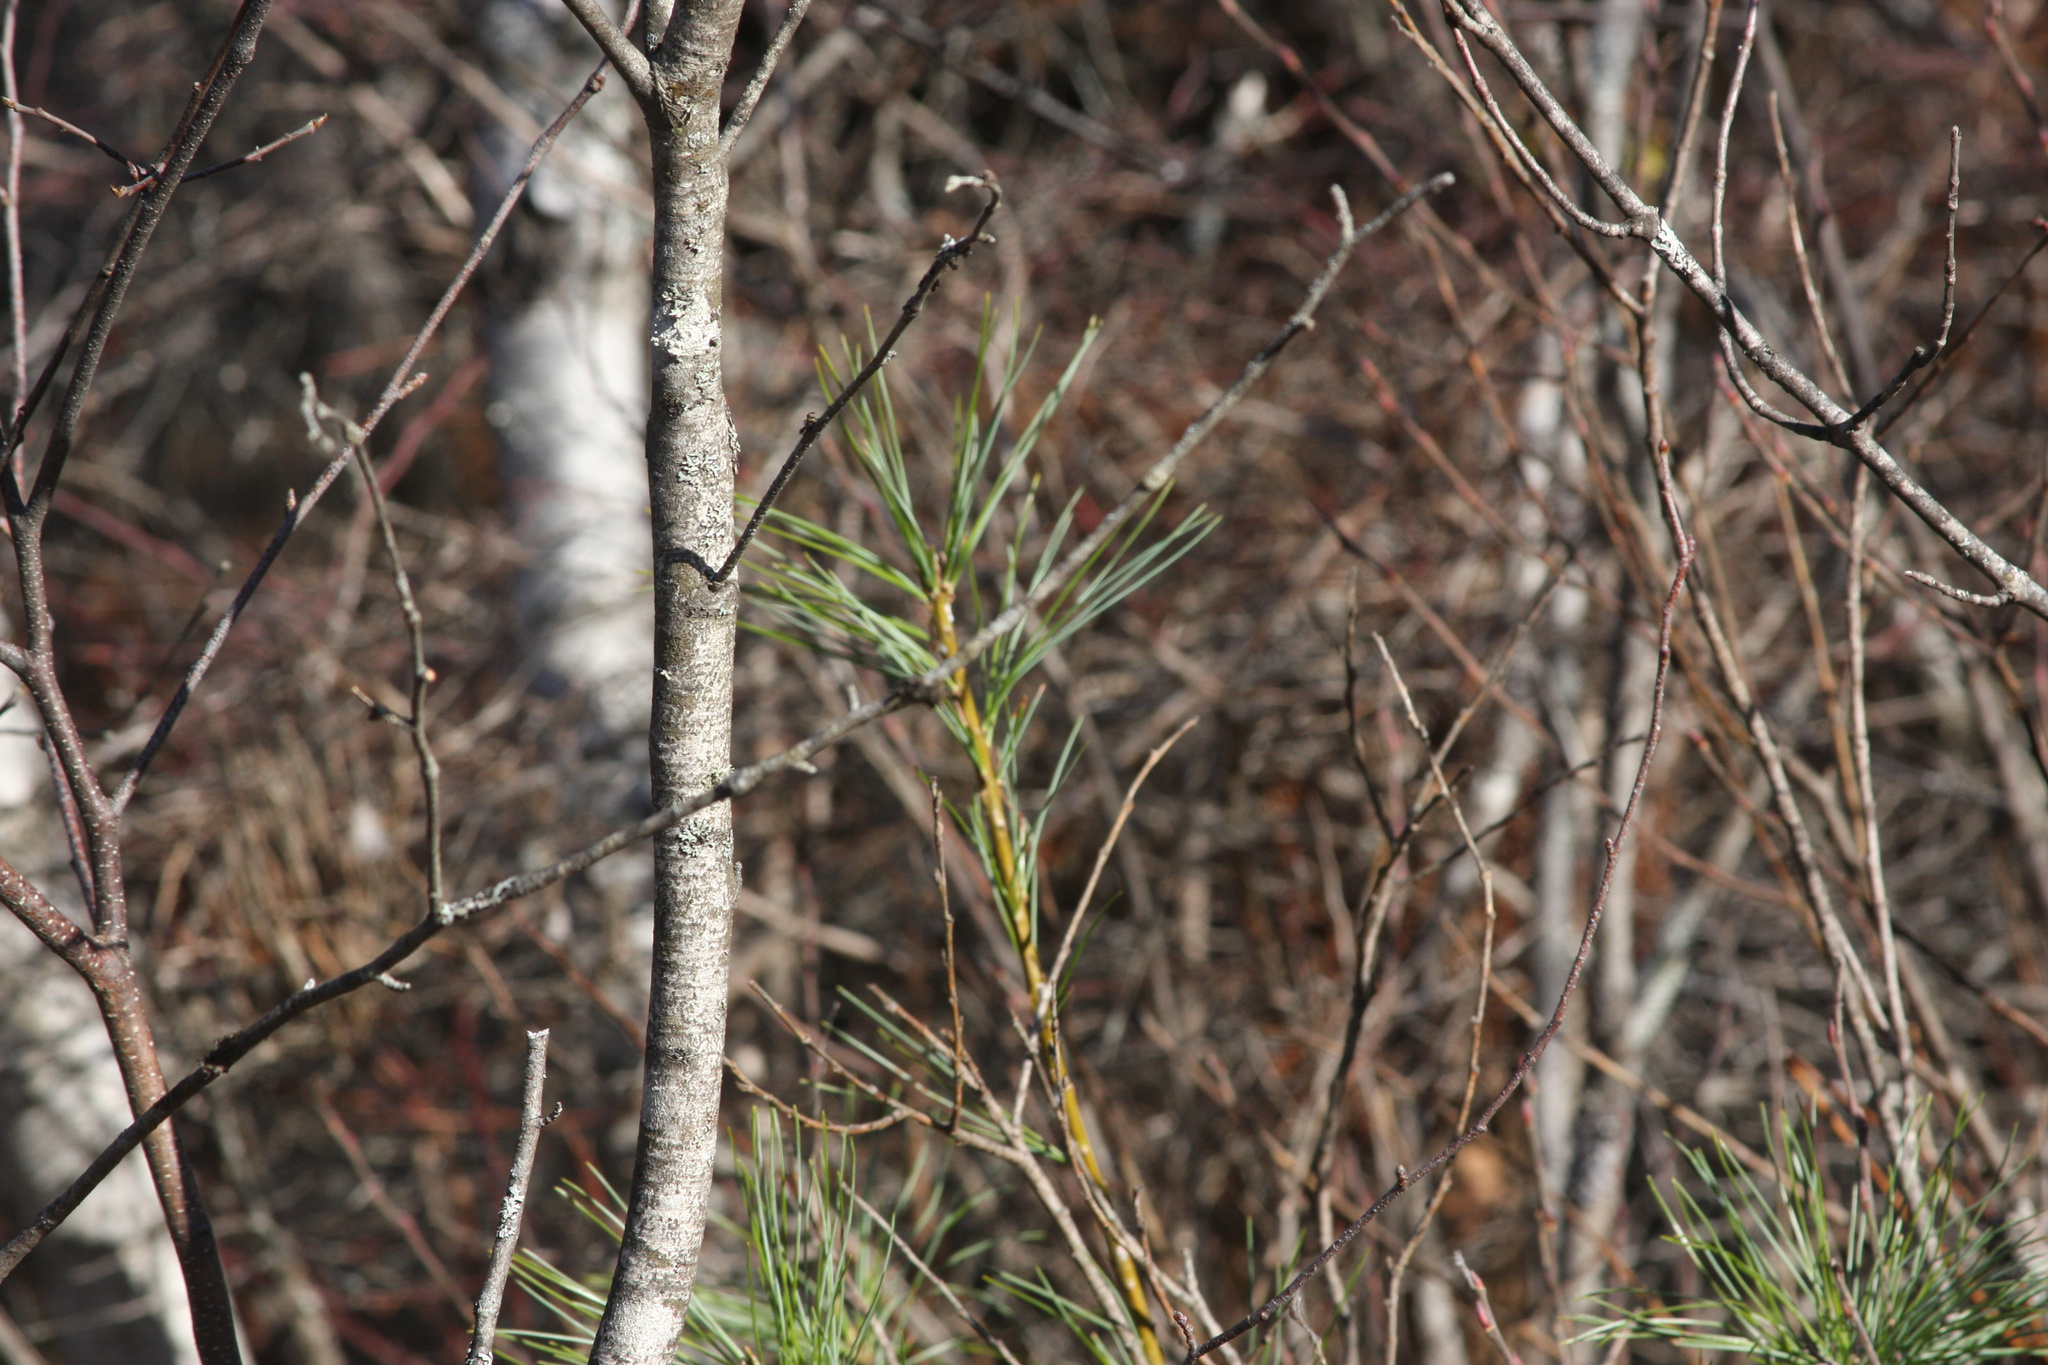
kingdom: Plantae
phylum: Tracheophyta
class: Pinopsida
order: Pinales
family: Pinaceae
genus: Pinus
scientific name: Pinus strobus
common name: Weymouth pine
